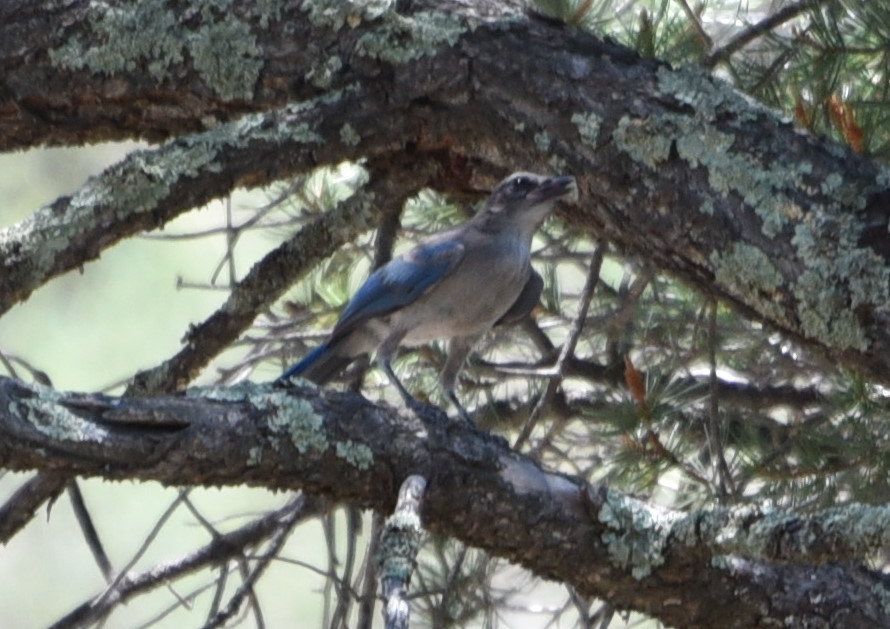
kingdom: Animalia
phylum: Chordata
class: Aves
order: Passeriformes
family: Corvidae
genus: Aphelocoma
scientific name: Aphelocoma woodhouseii
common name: Woodhouse's scrub-jay
